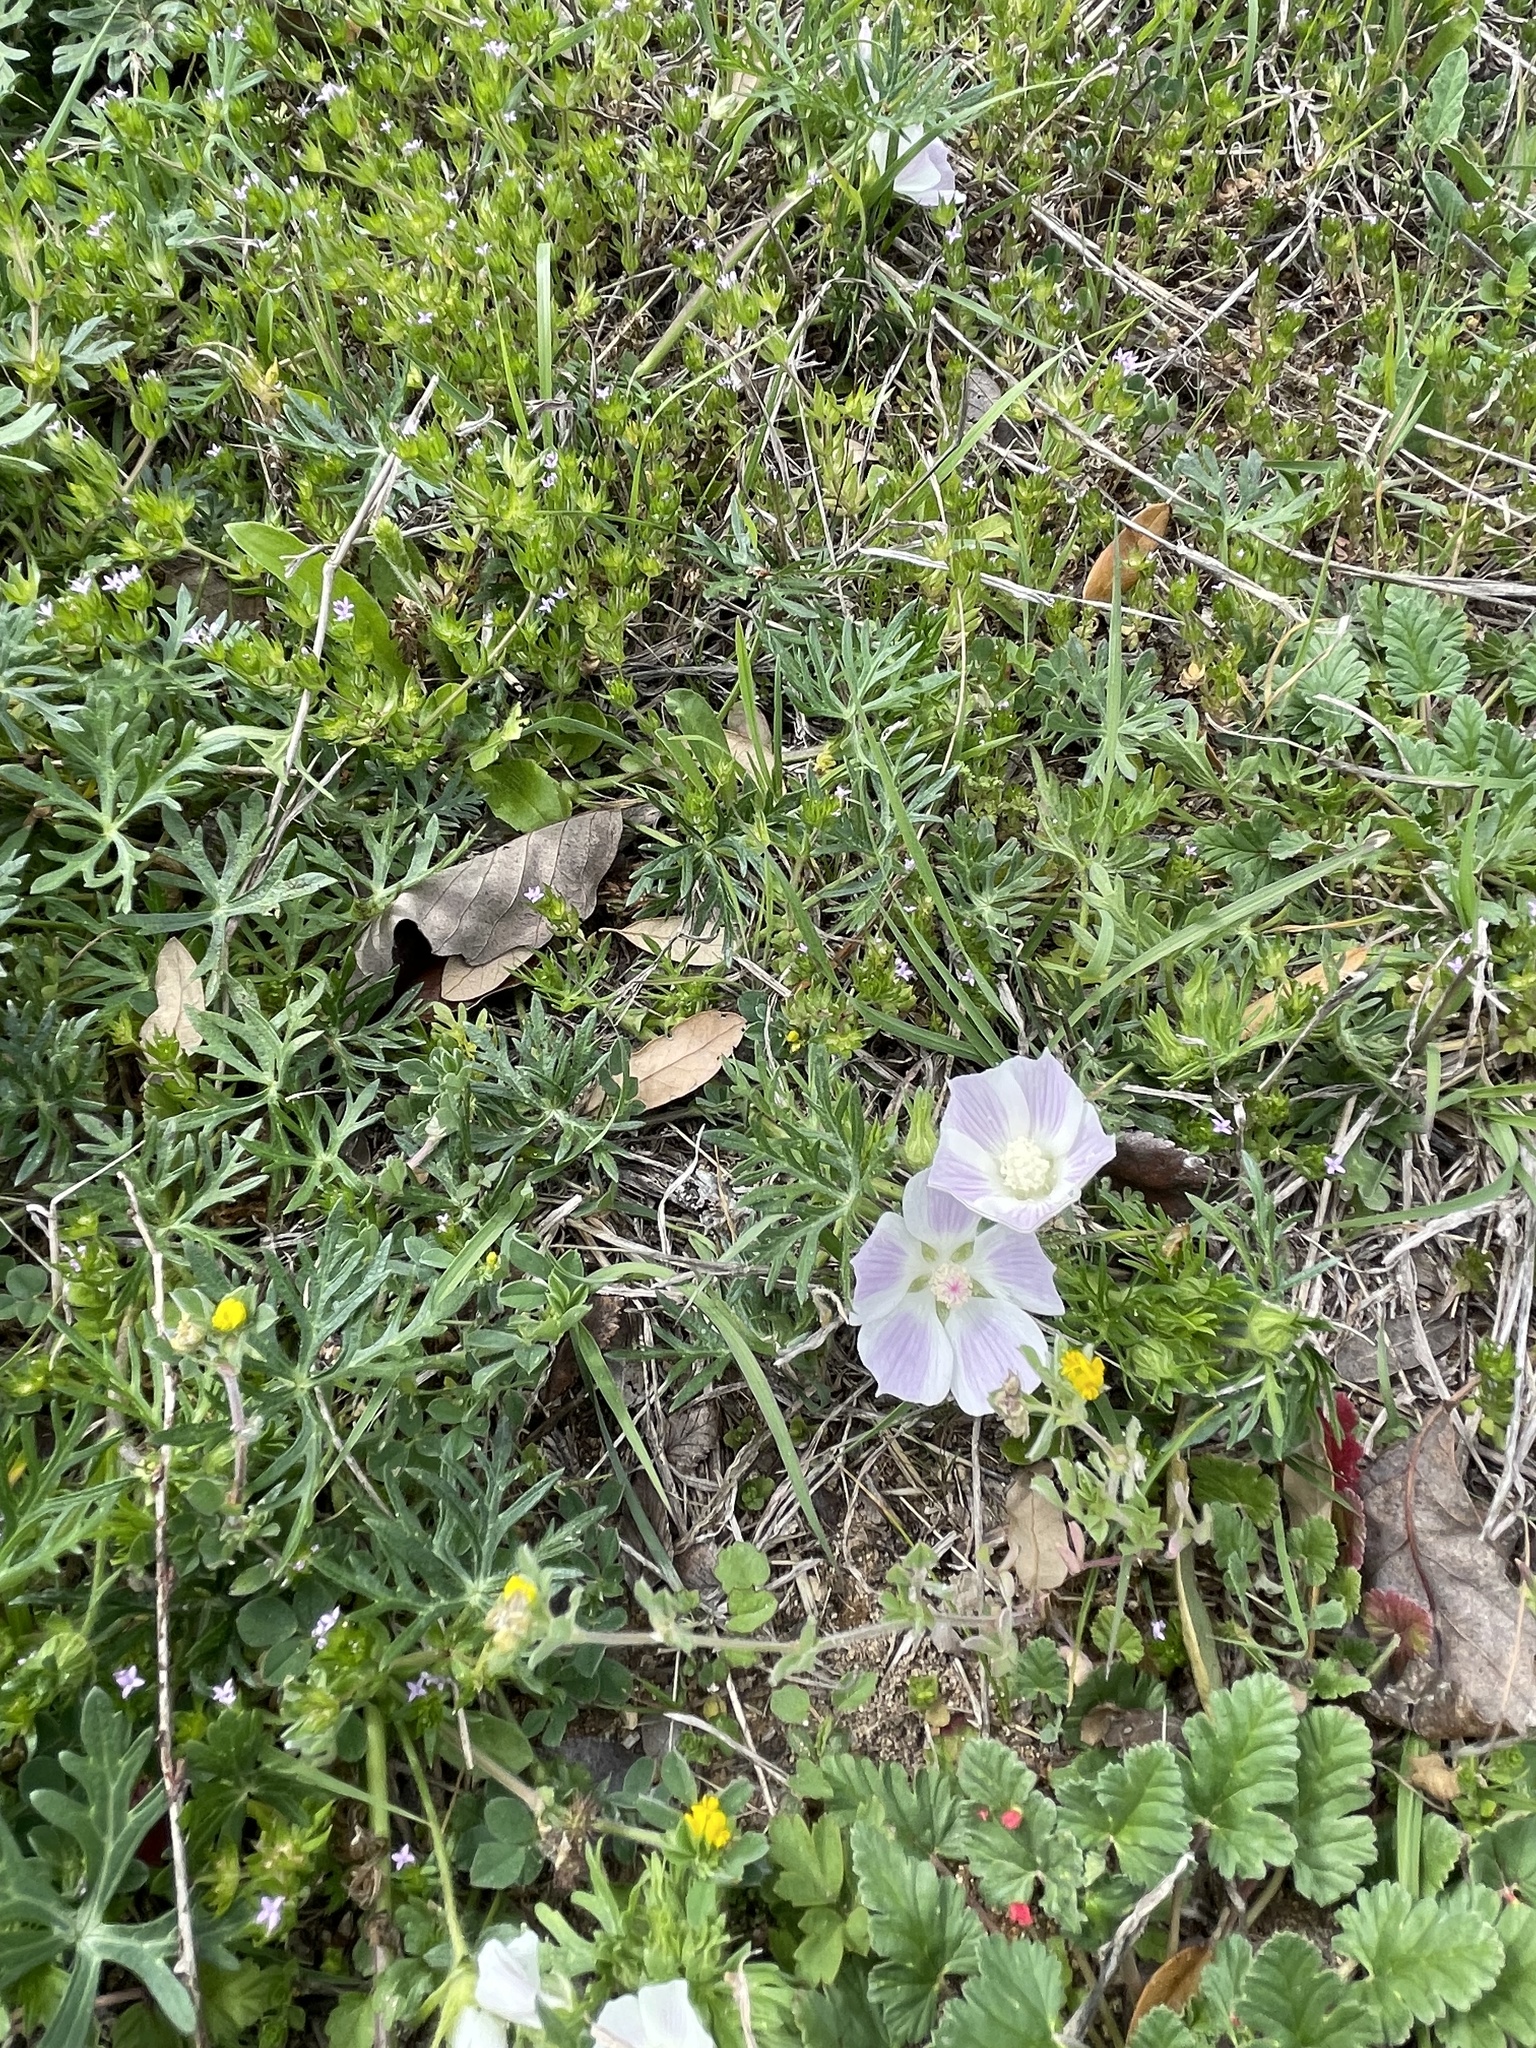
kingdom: Plantae
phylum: Tracheophyta
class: Magnoliopsida
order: Malvales
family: Malvaceae
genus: Callirhoe
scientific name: Callirhoe involucrata
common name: Purple poppy-mallow
